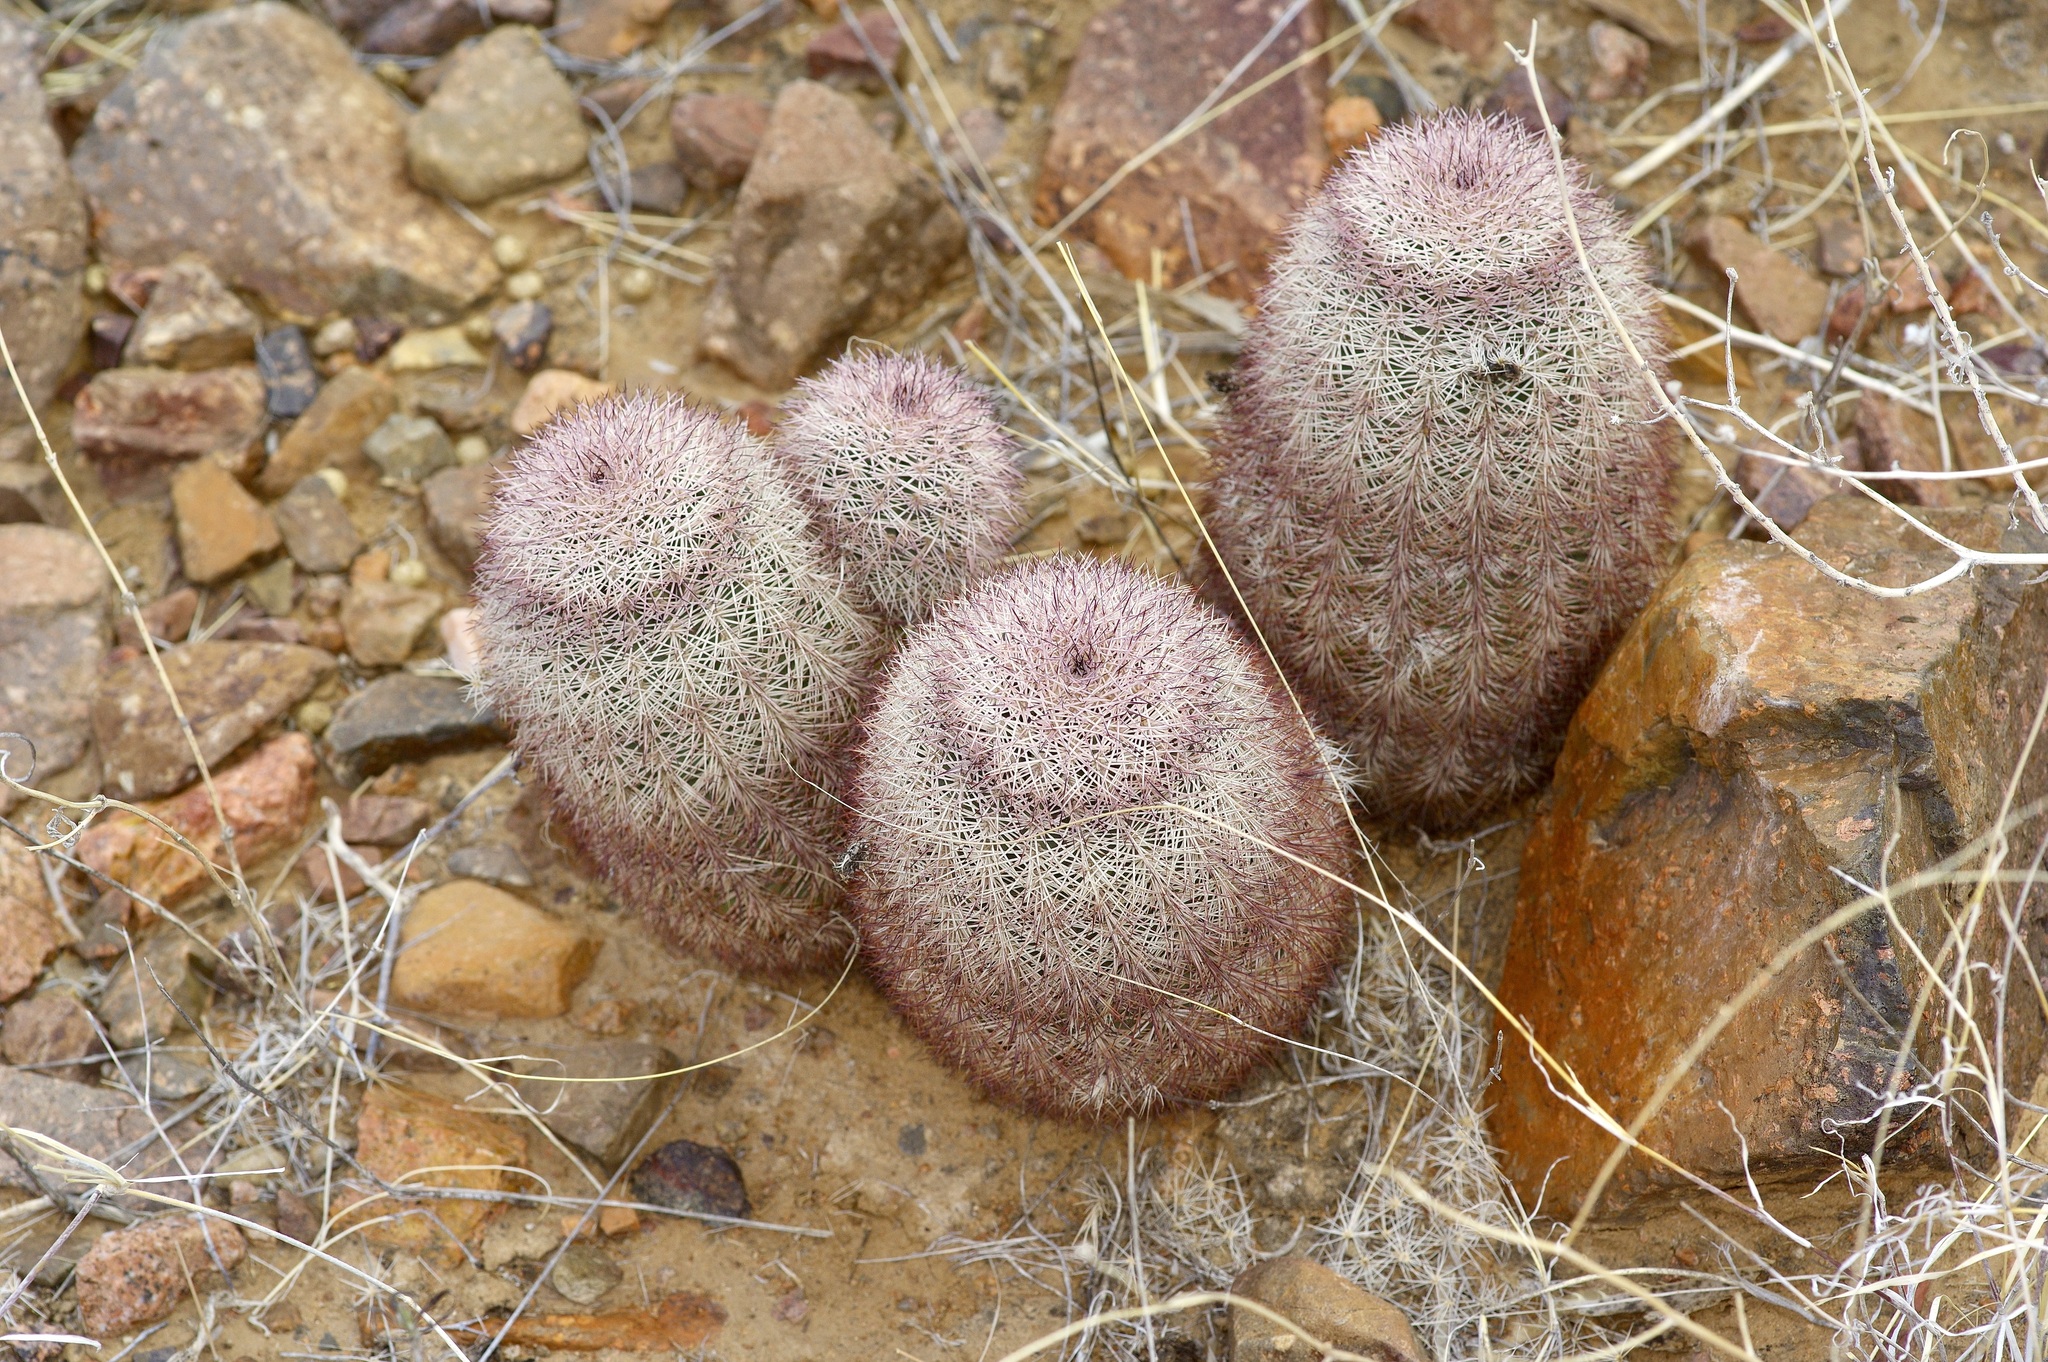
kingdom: Plantae
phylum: Tracheophyta
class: Magnoliopsida
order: Caryophyllales
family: Cactaceae
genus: Echinocereus
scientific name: Echinocereus dasyacanthus
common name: Spiny hedgehog cactus
